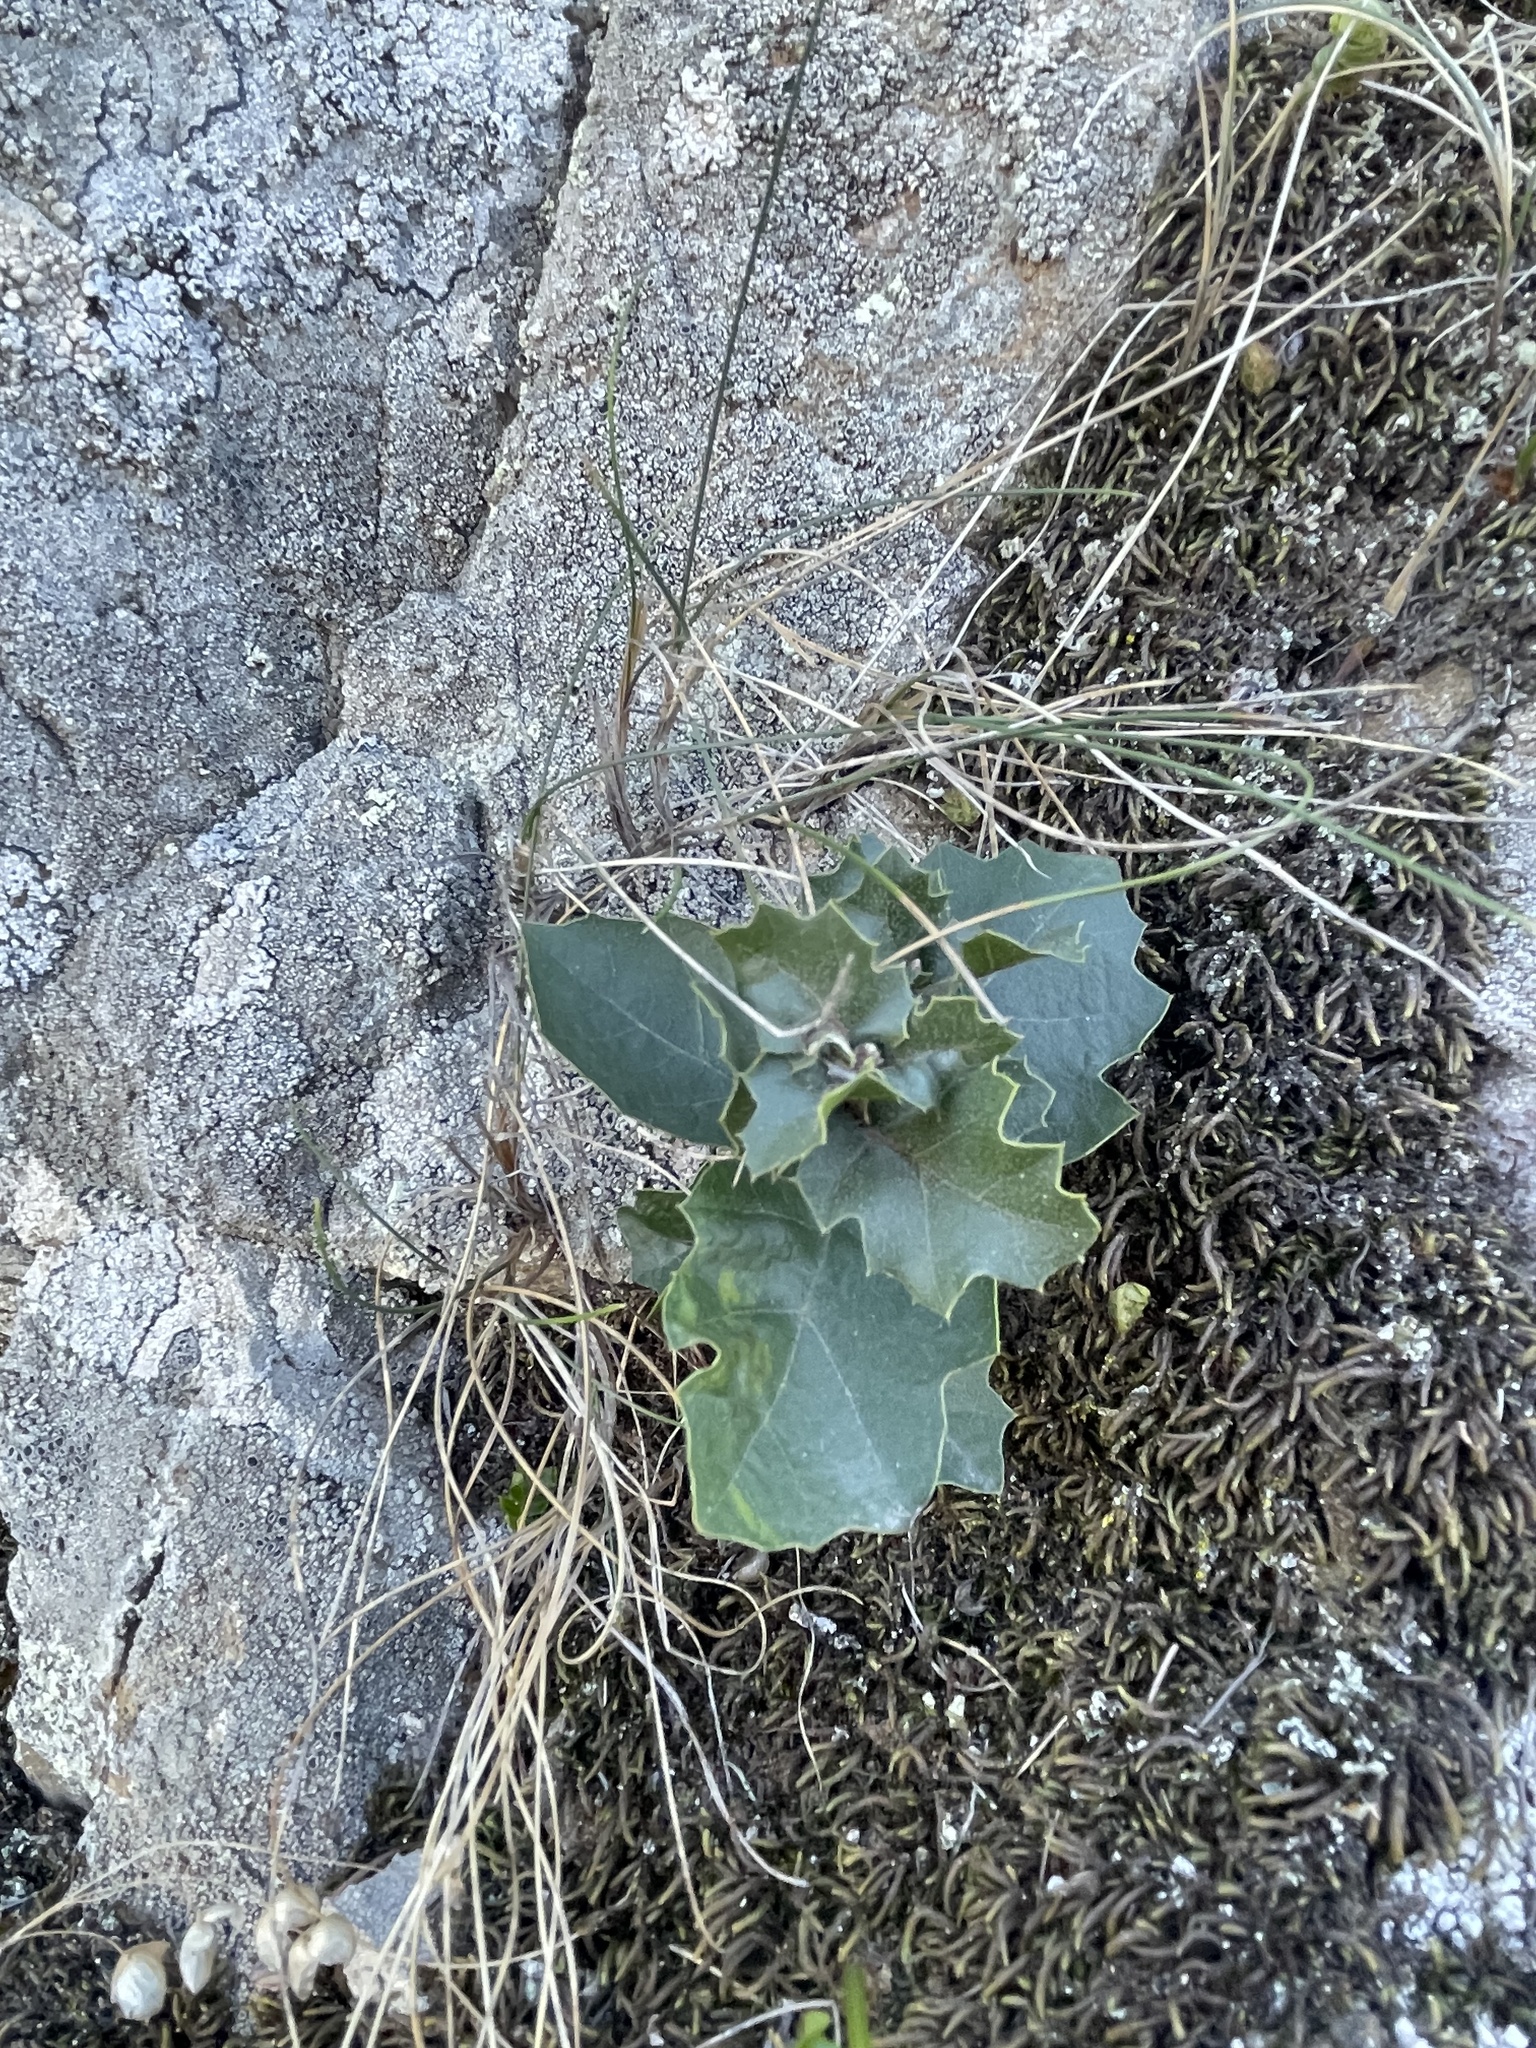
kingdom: Plantae
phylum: Tracheophyta
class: Magnoliopsida
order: Fagales
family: Fagaceae
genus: Quercus
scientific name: Quercus agrifolia
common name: California live oak
